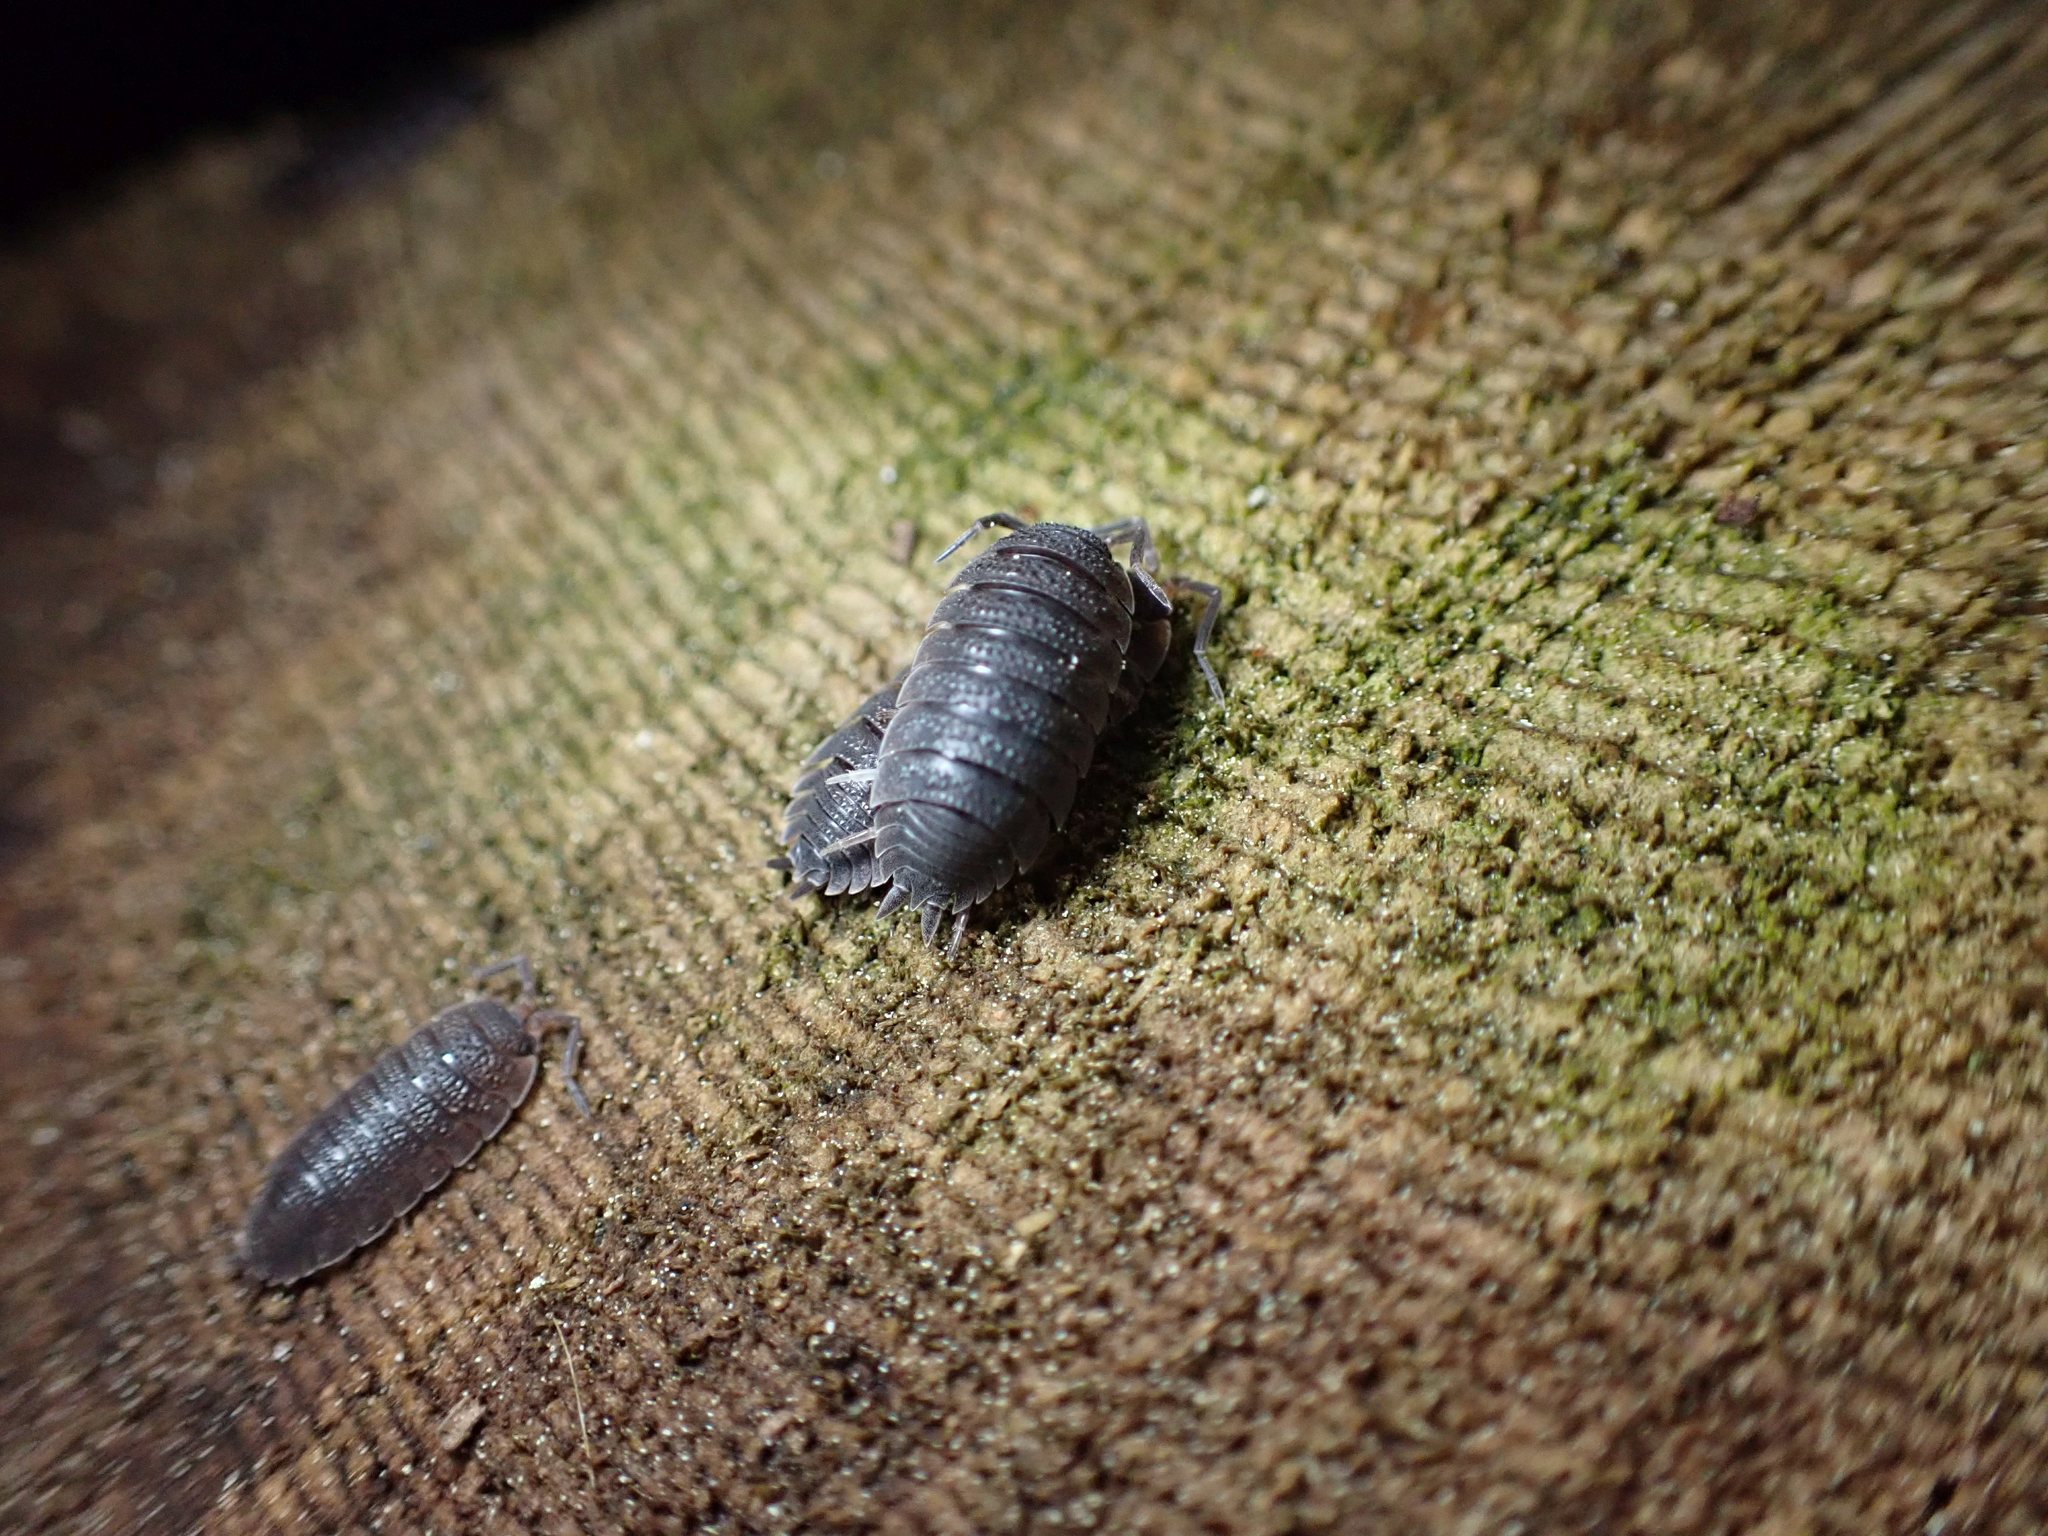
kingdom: Animalia
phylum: Arthropoda
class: Malacostraca
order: Isopoda
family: Porcellionidae
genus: Porcellio
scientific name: Porcellio scaber
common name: Common rough woodlouse
